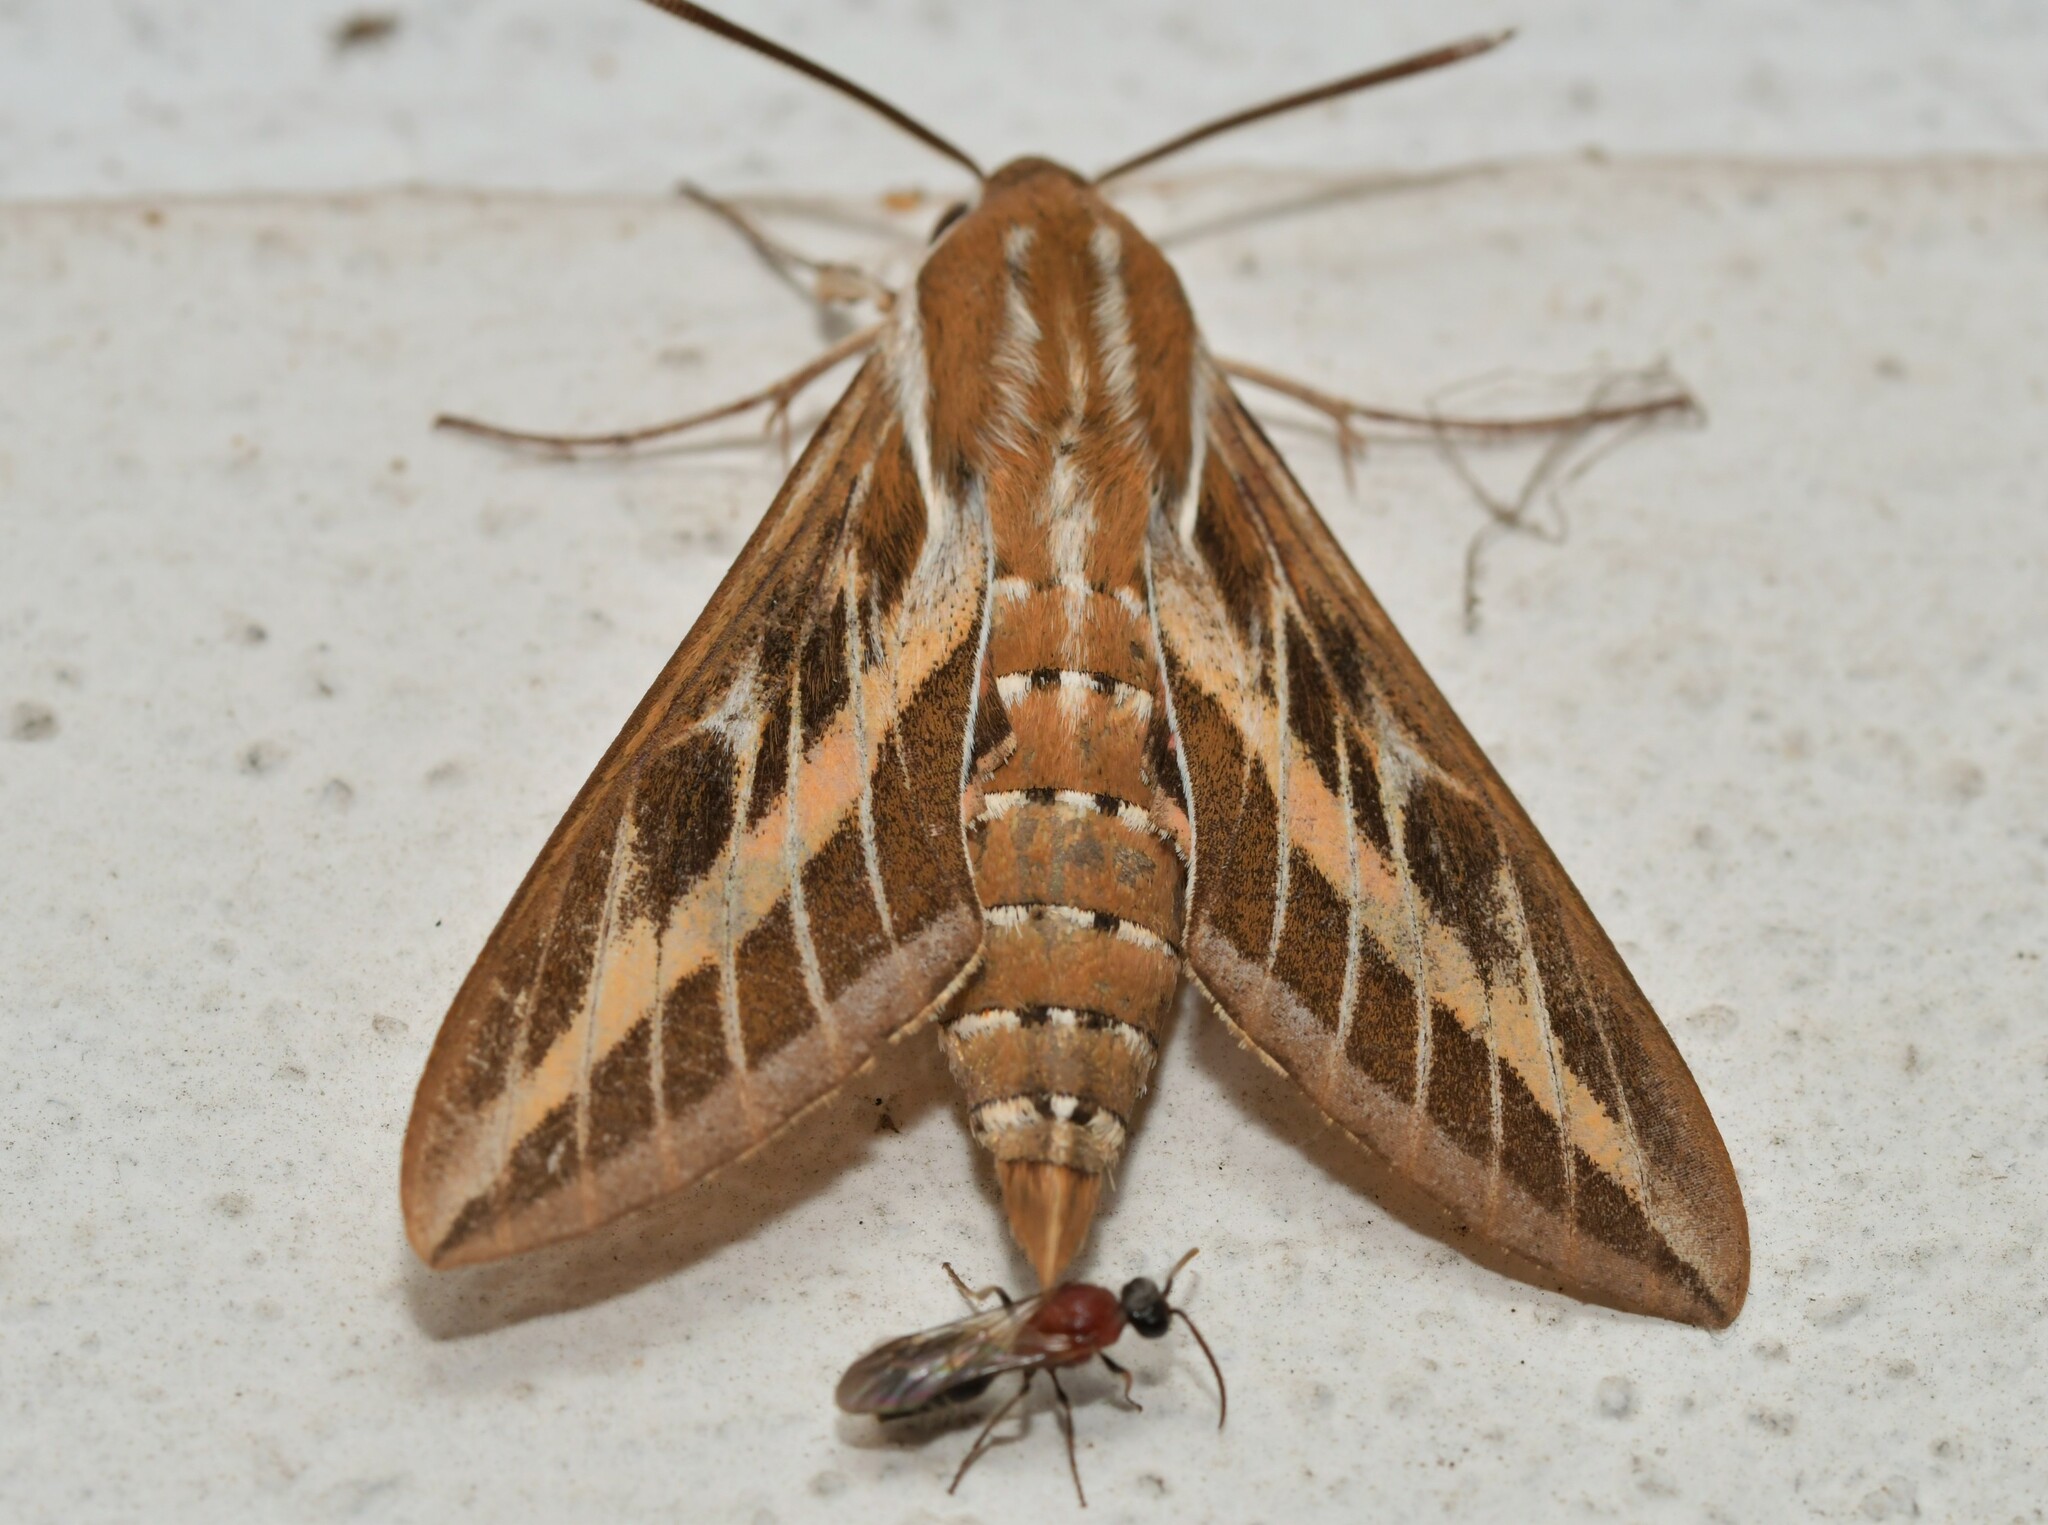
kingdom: Animalia
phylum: Arthropoda
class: Insecta
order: Lepidoptera
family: Sphingidae
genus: Hyles
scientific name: Hyles livornica
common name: Striped hawk-moth
